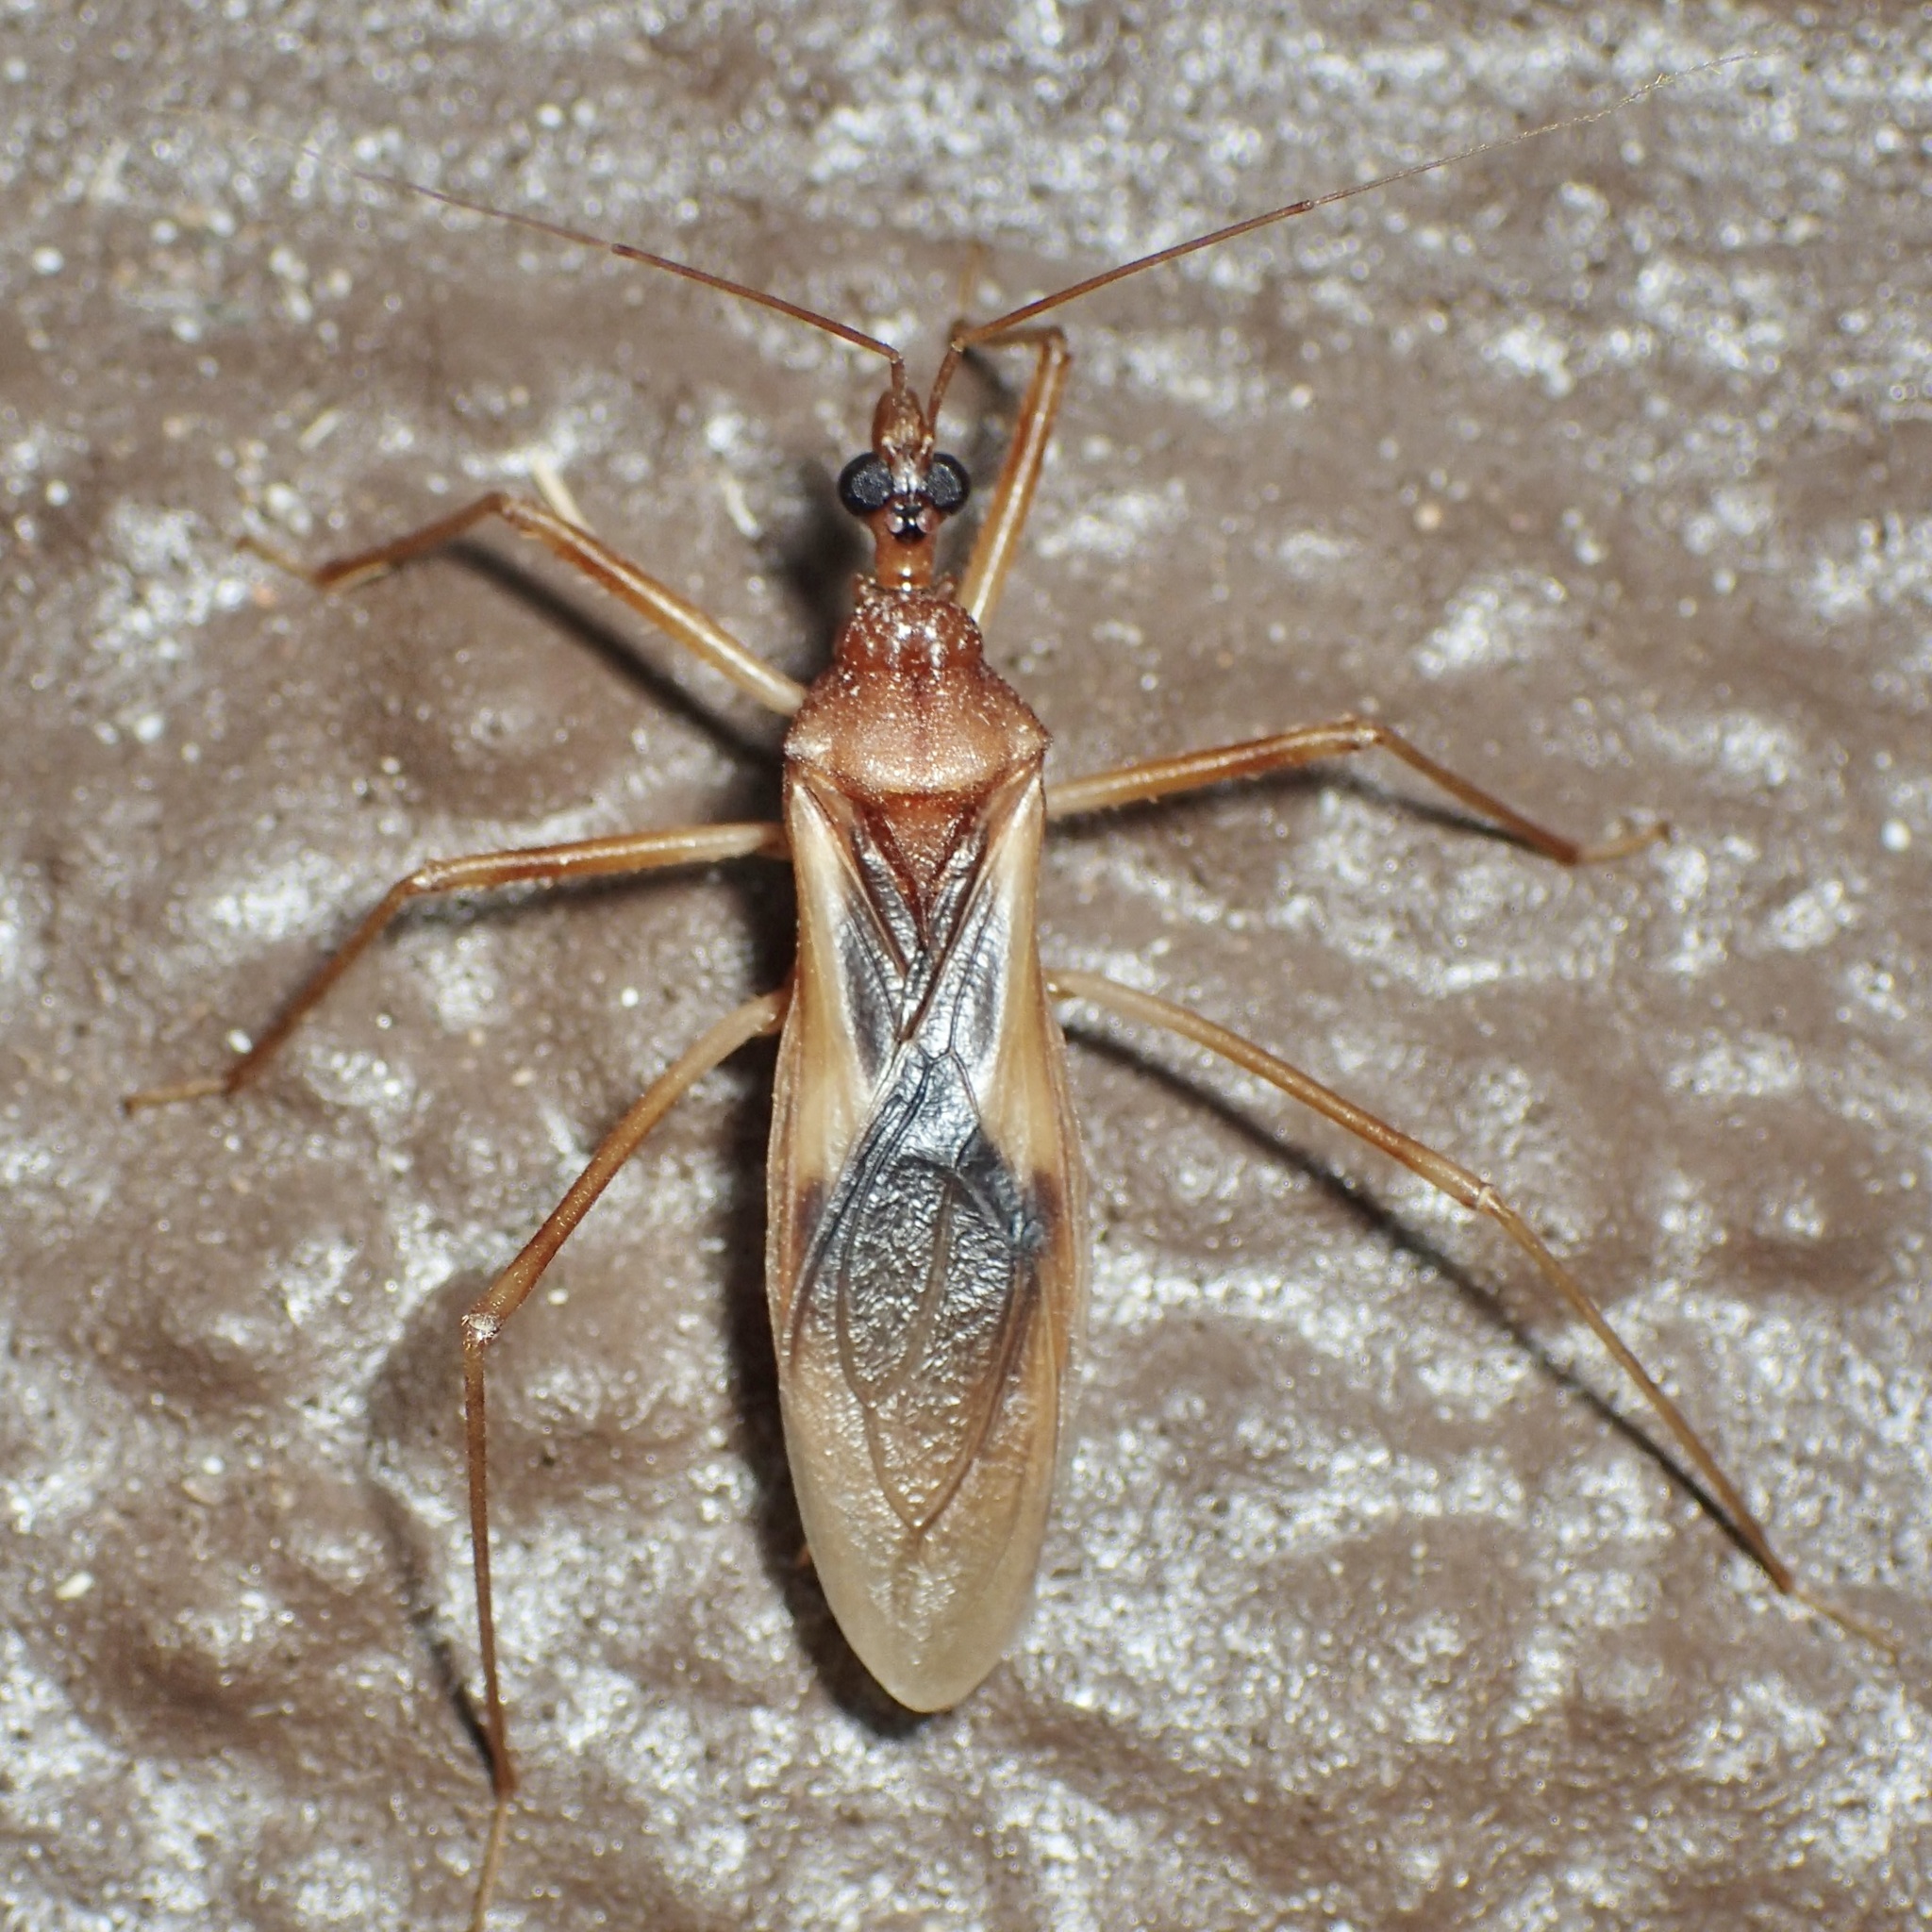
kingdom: Animalia
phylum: Arthropoda
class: Insecta
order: Hemiptera
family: Reduviidae
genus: Zeluroides
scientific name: Zeluroides americanus
